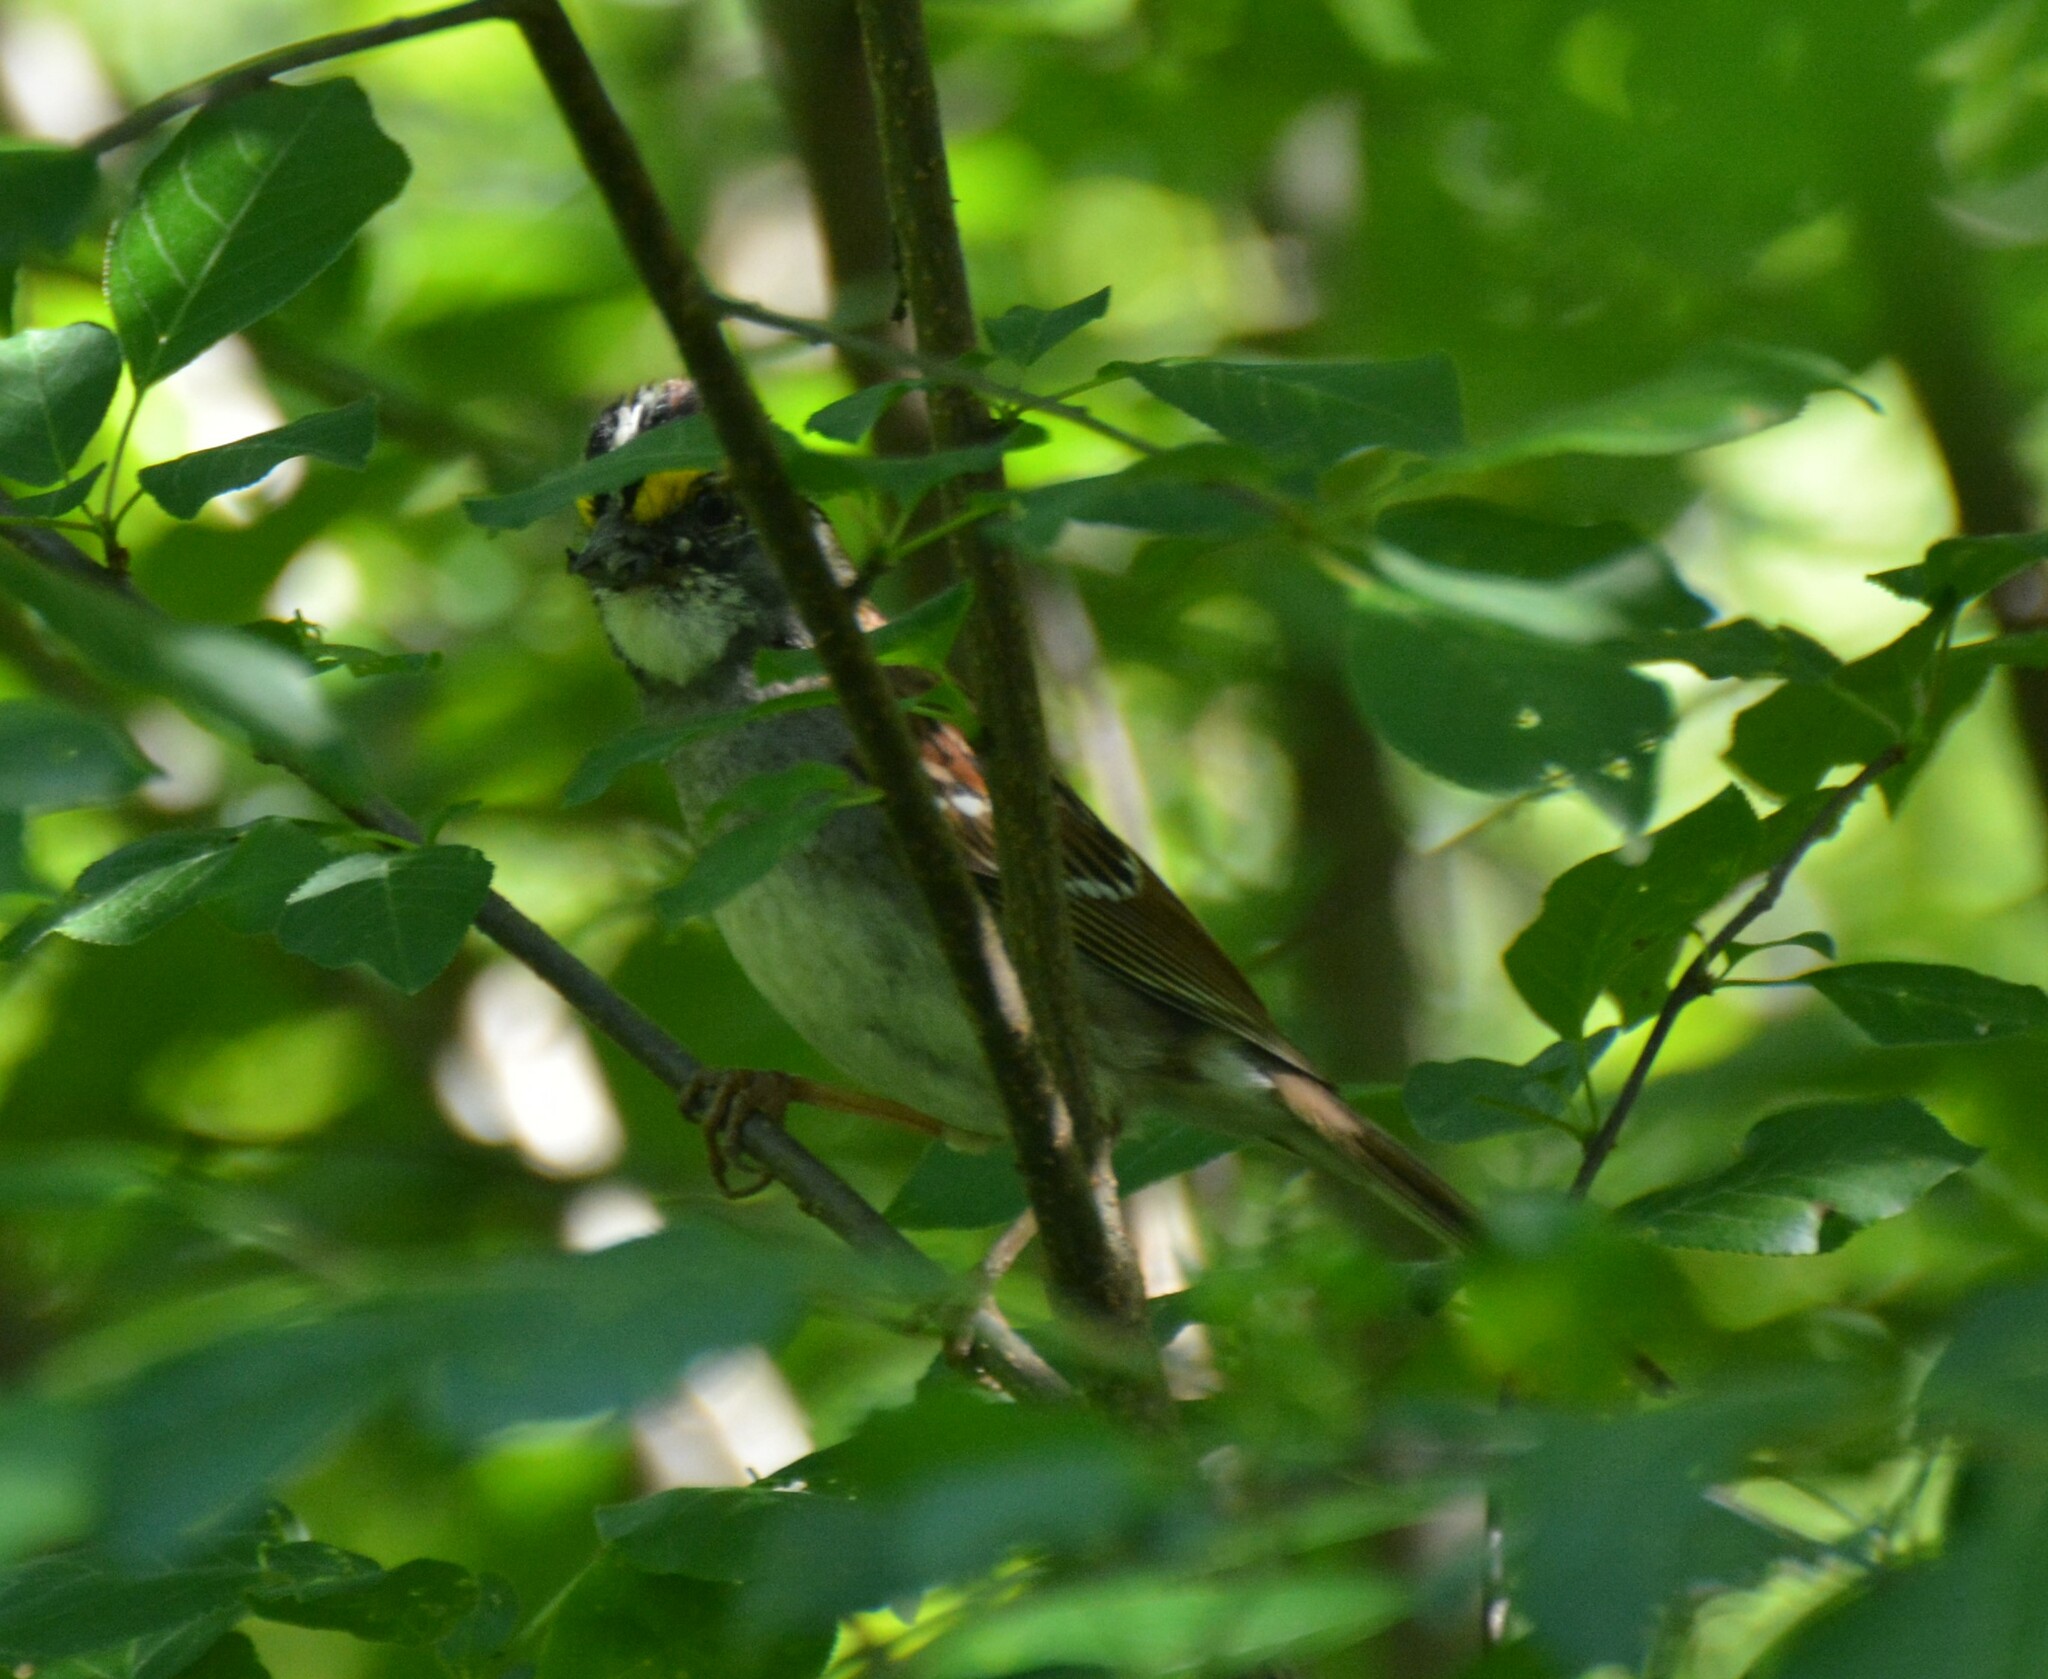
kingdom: Animalia
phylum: Chordata
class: Aves
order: Passeriformes
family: Passerellidae
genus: Zonotrichia
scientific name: Zonotrichia albicollis
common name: White-throated sparrow
